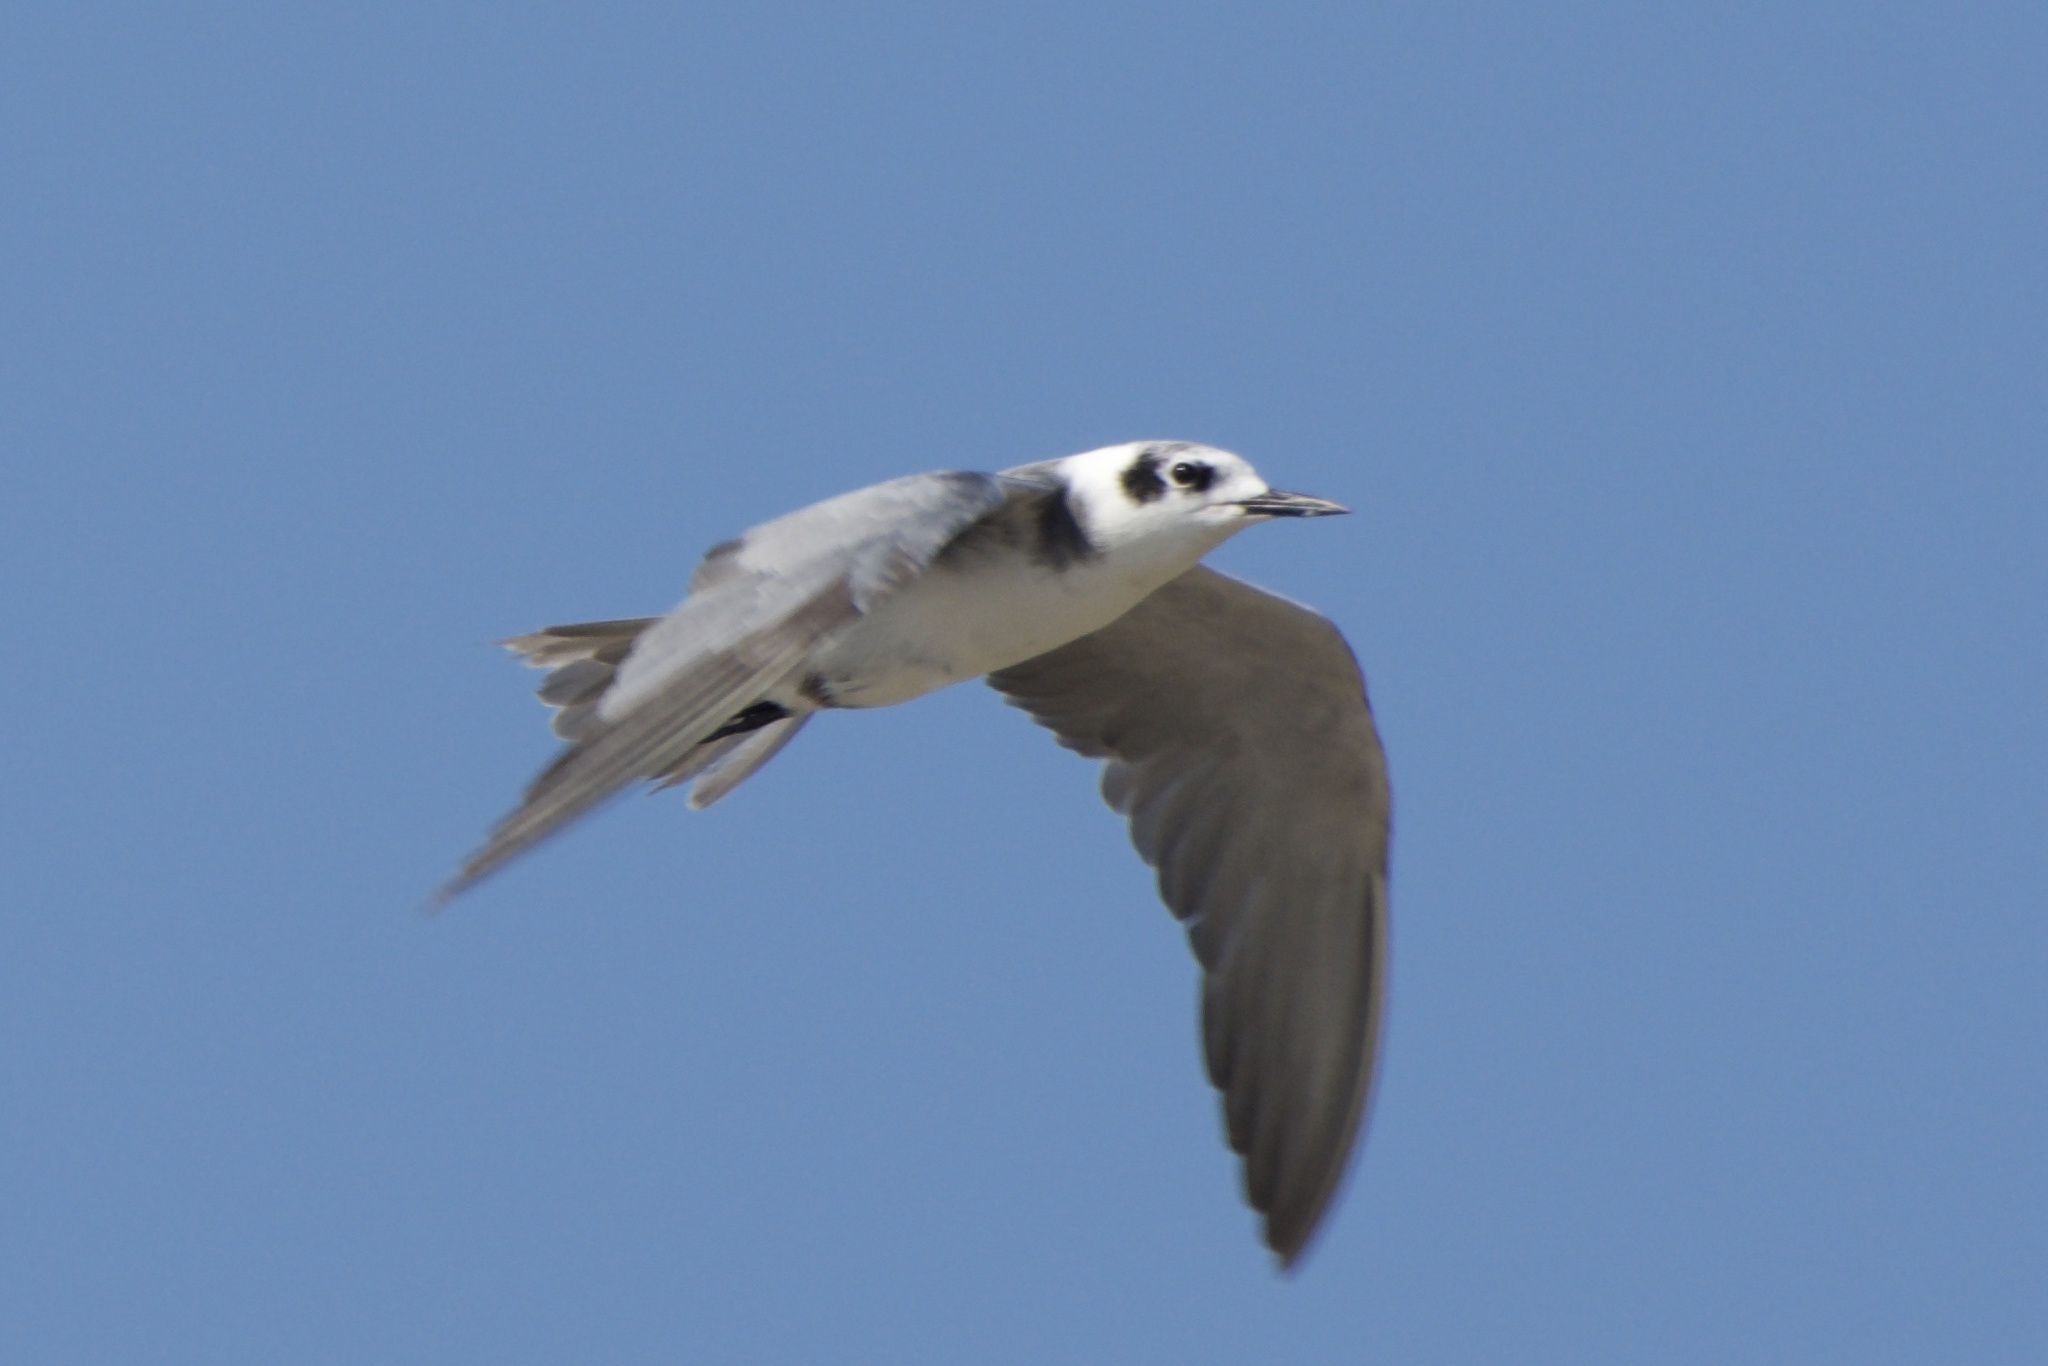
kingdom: Animalia
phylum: Chordata
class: Aves
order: Charadriiformes
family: Laridae
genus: Chlidonias
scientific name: Chlidonias niger
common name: Black tern
